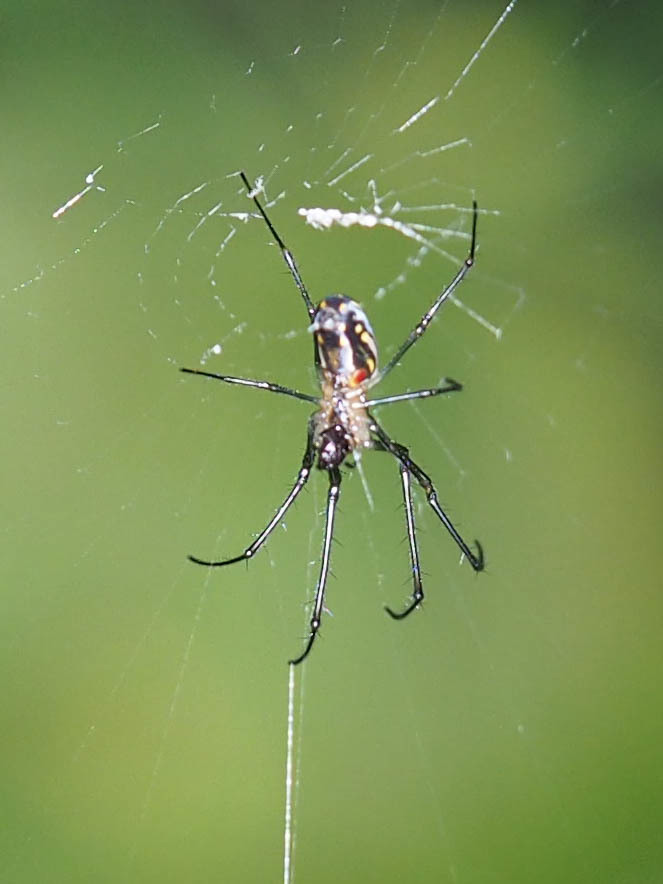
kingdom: Animalia
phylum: Arthropoda
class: Arachnida
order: Araneae
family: Tetragnathidae
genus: Leucauge
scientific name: Leucauge argyra
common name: Longjawed orb weavers
